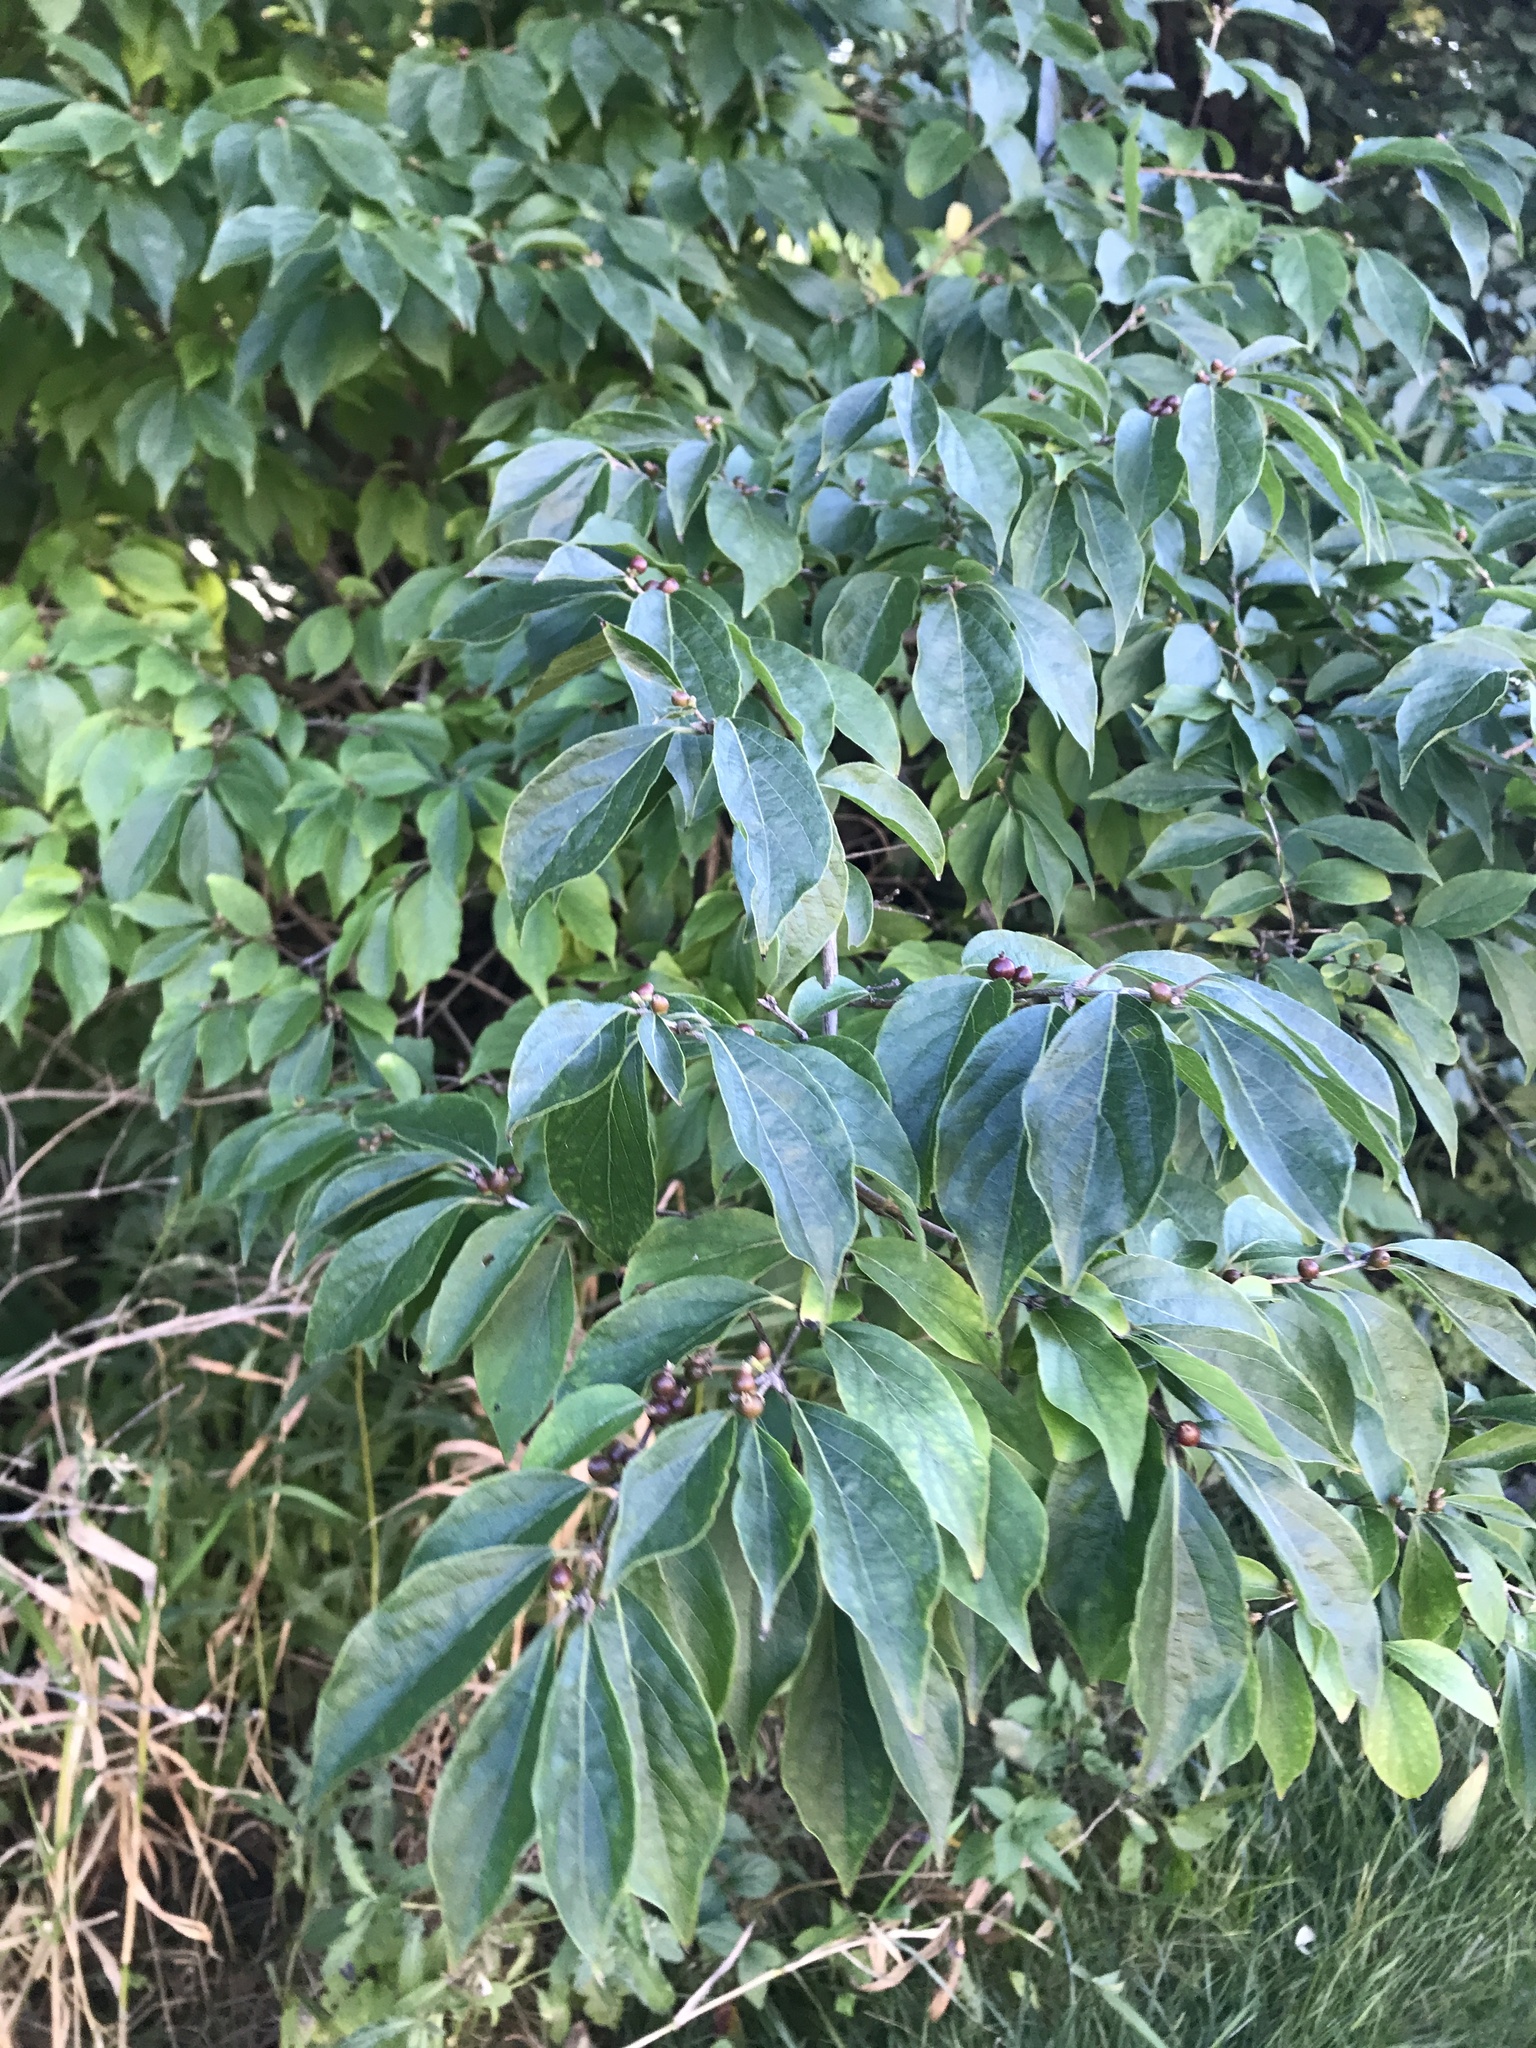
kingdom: Plantae
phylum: Tracheophyta
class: Magnoliopsida
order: Dipsacales
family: Caprifoliaceae
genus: Lonicera
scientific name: Lonicera maackii
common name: Amur honeysuckle
